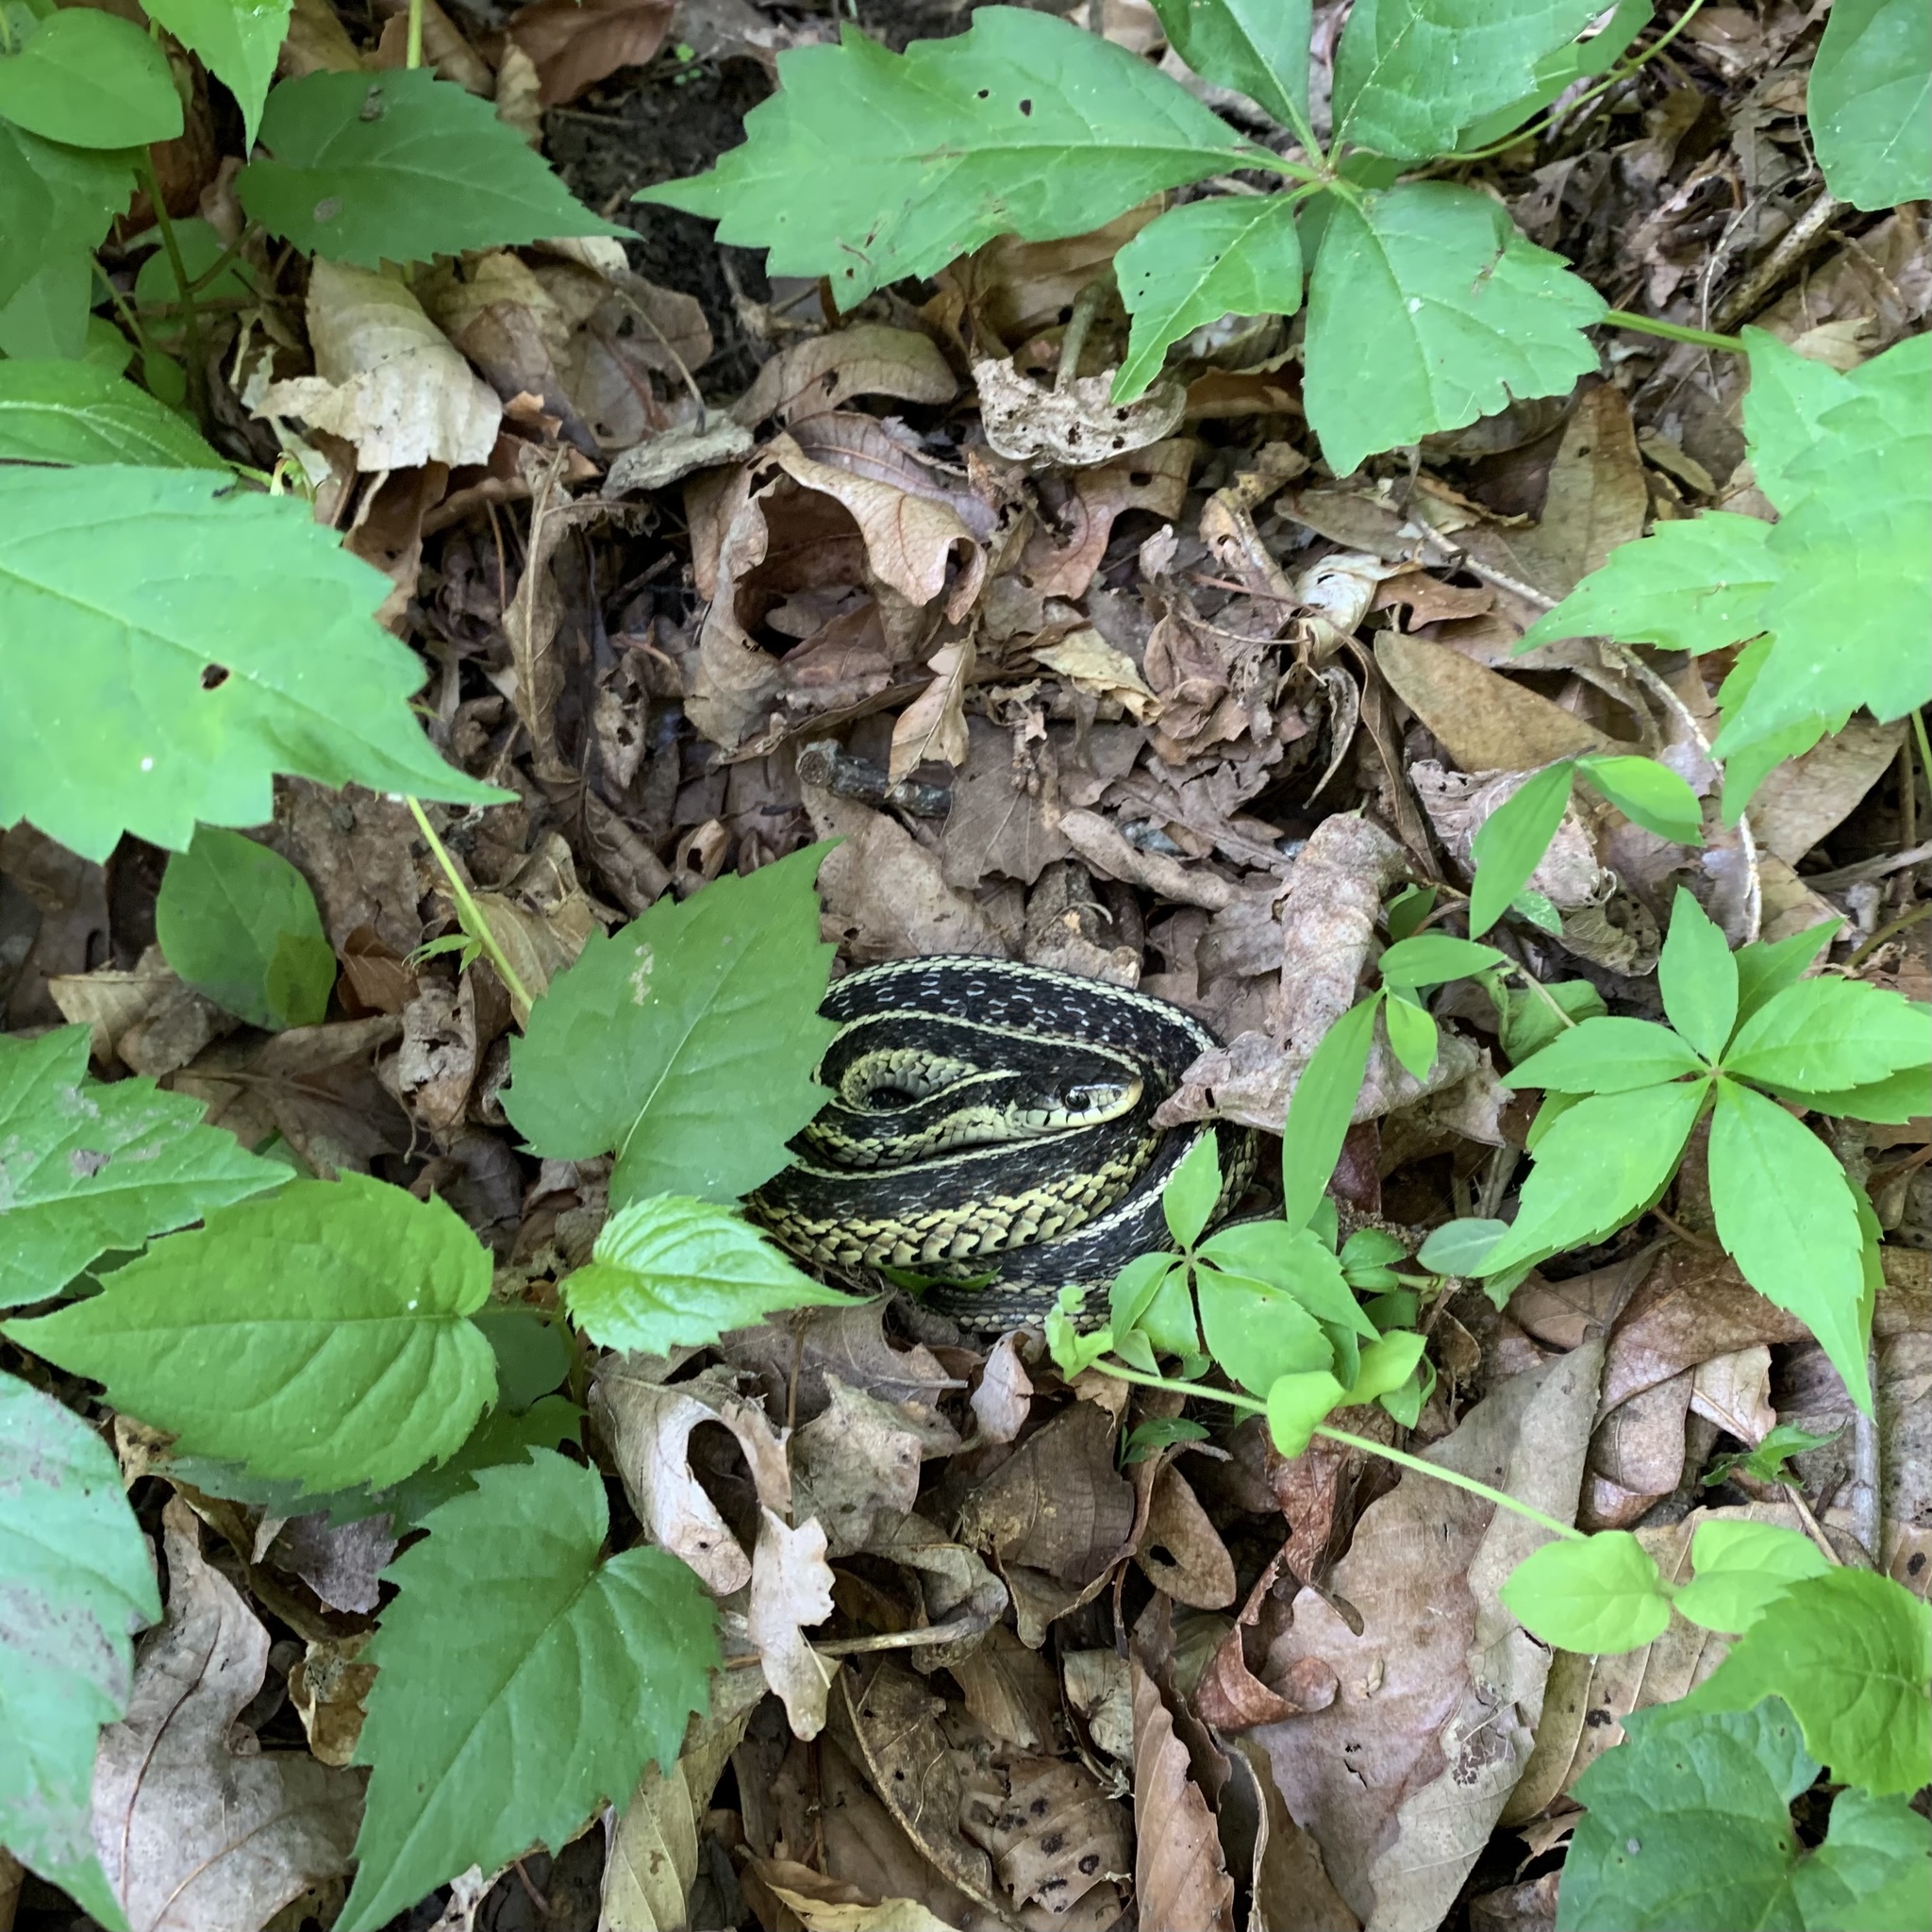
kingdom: Animalia
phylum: Chordata
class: Squamata
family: Colubridae
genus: Thamnophis
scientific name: Thamnophis sirtalis
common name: Common garter snake
